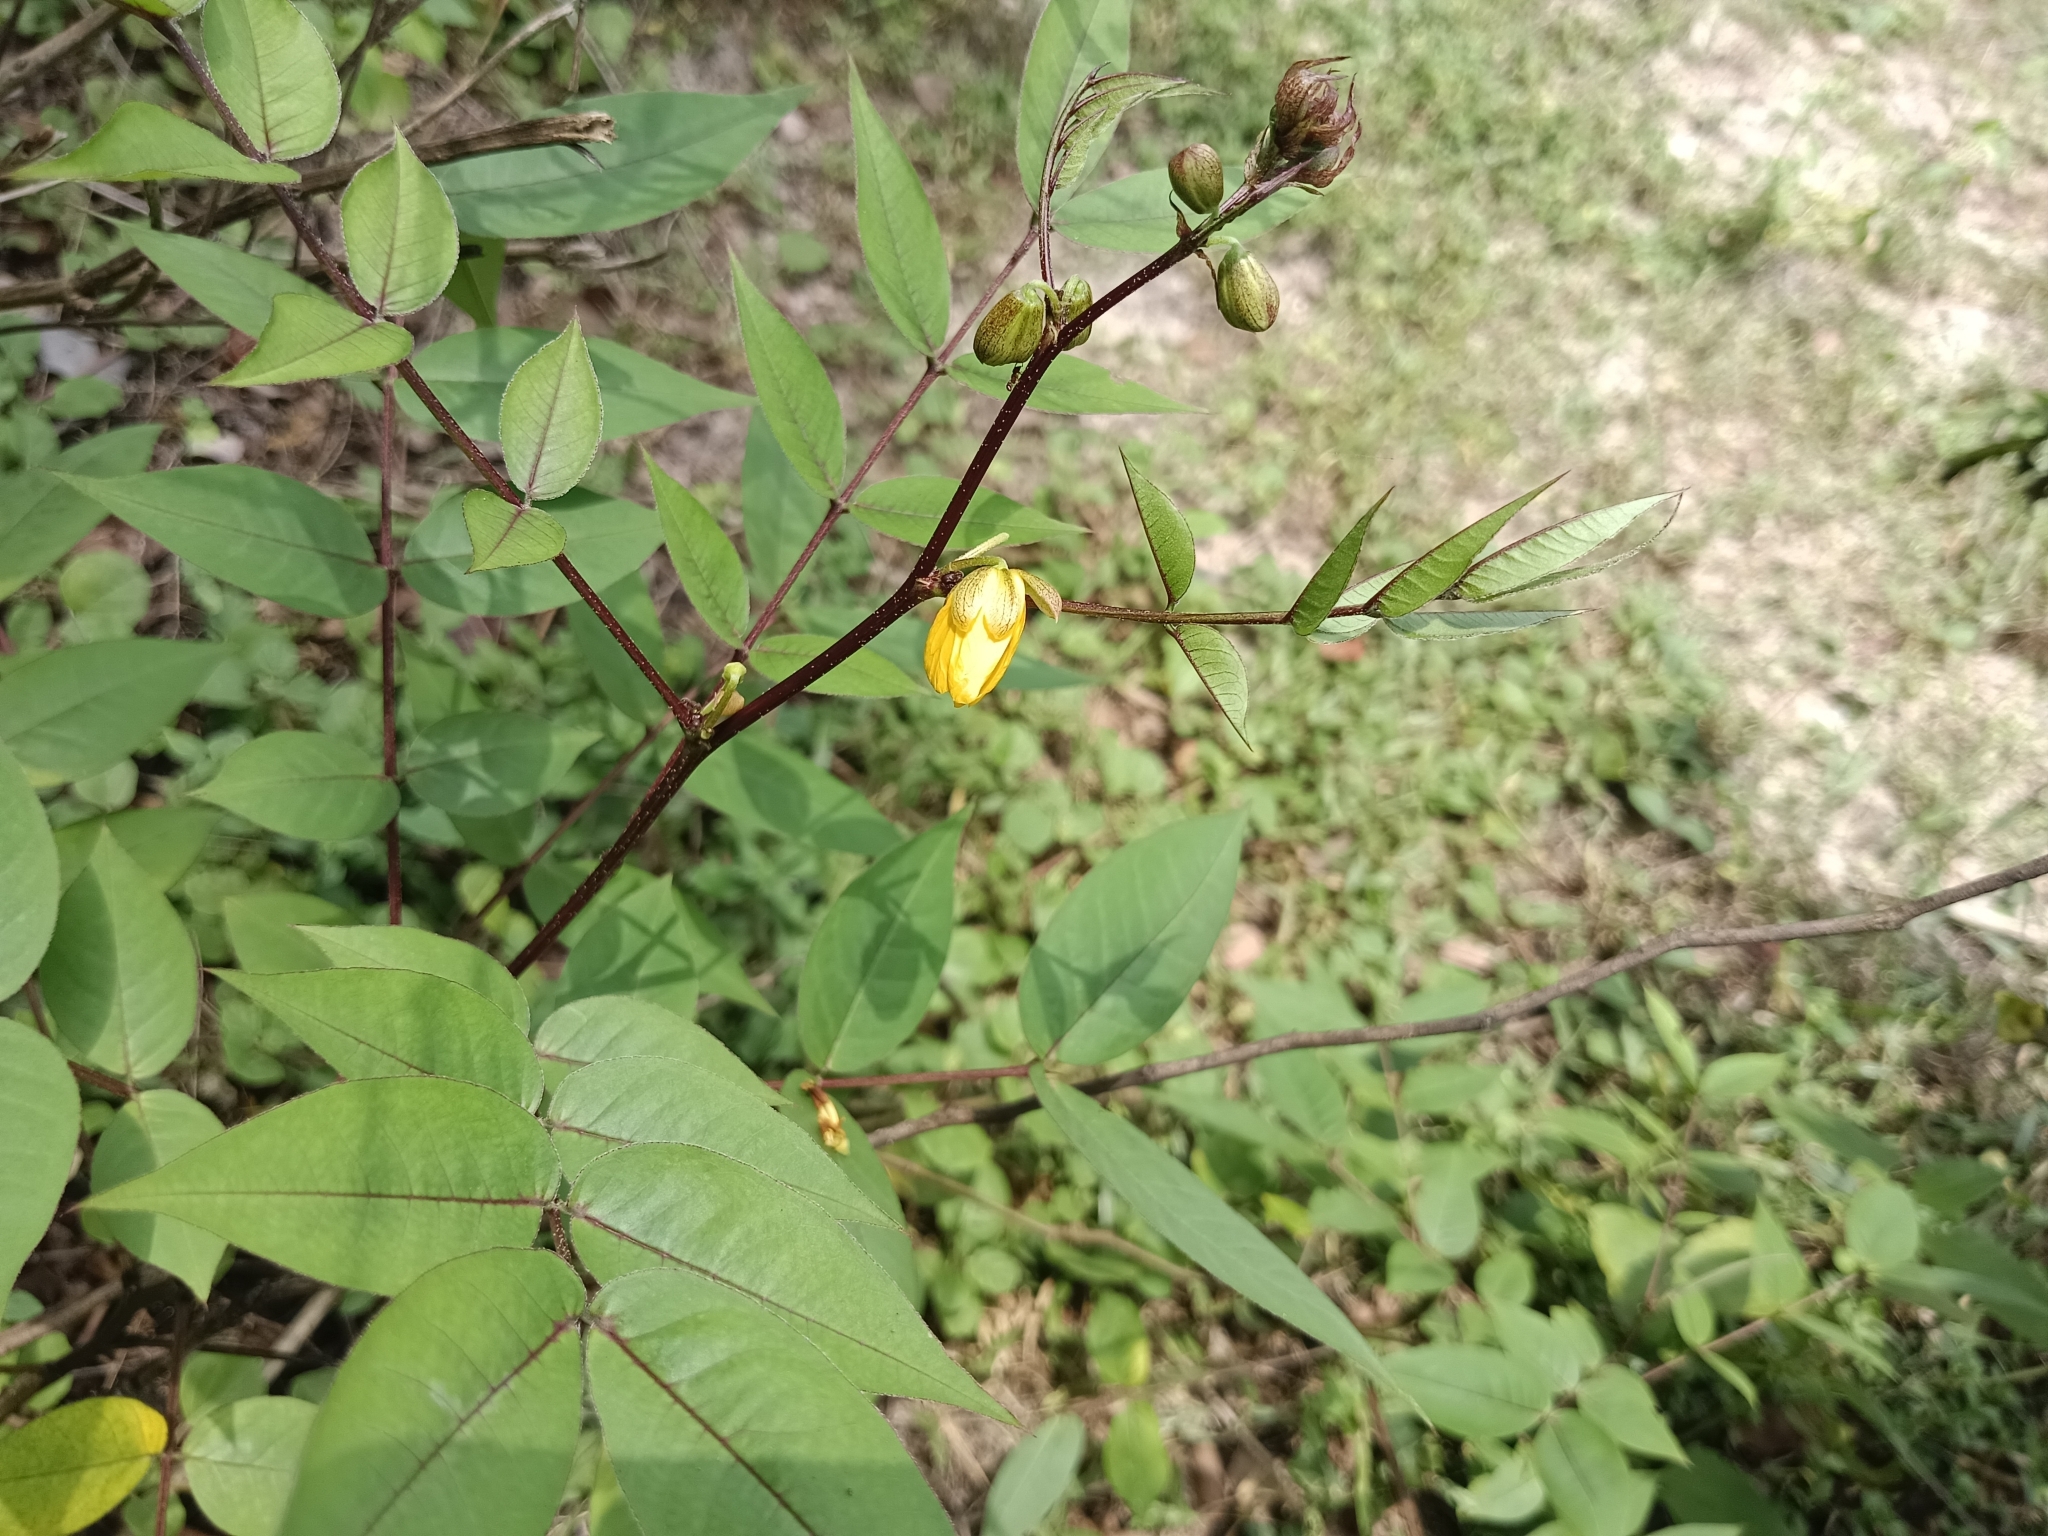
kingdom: Plantae
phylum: Tracheophyta
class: Magnoliopsida
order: Fabales
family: Fabaceae
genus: Senna
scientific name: Senna occidentalis
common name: Septicweed
